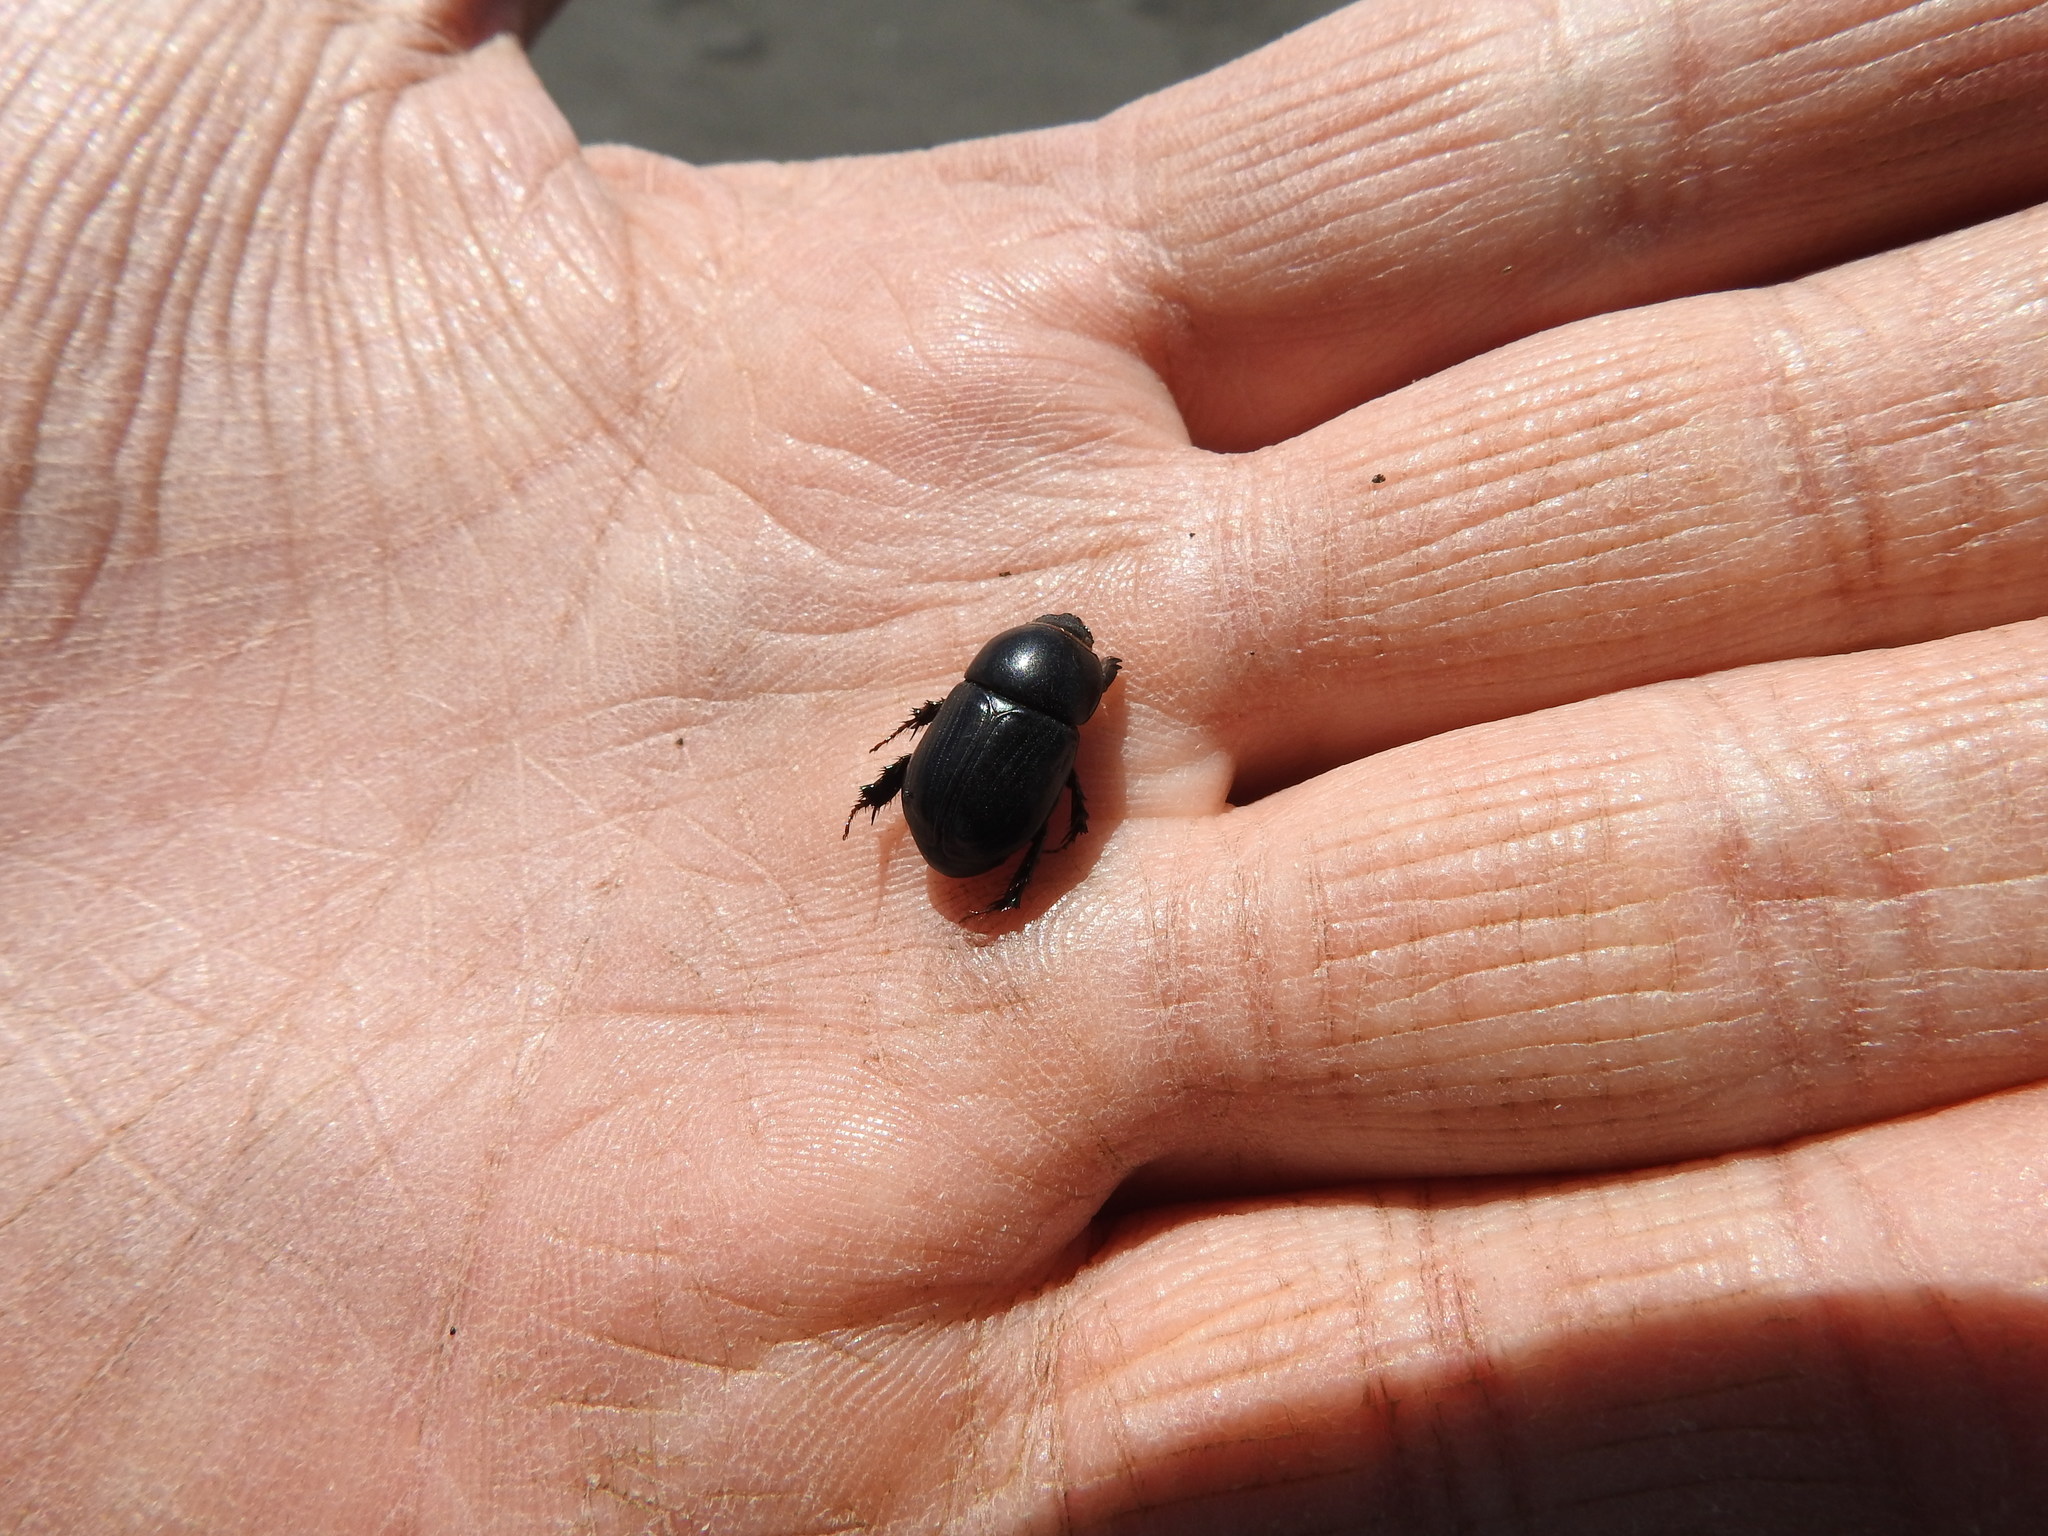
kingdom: Animalia
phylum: Arthropoda
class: Insecta
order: Coleoptera
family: Scarabaeidae
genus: Heteronychus
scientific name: Heteronychus arator
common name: African black beetle
